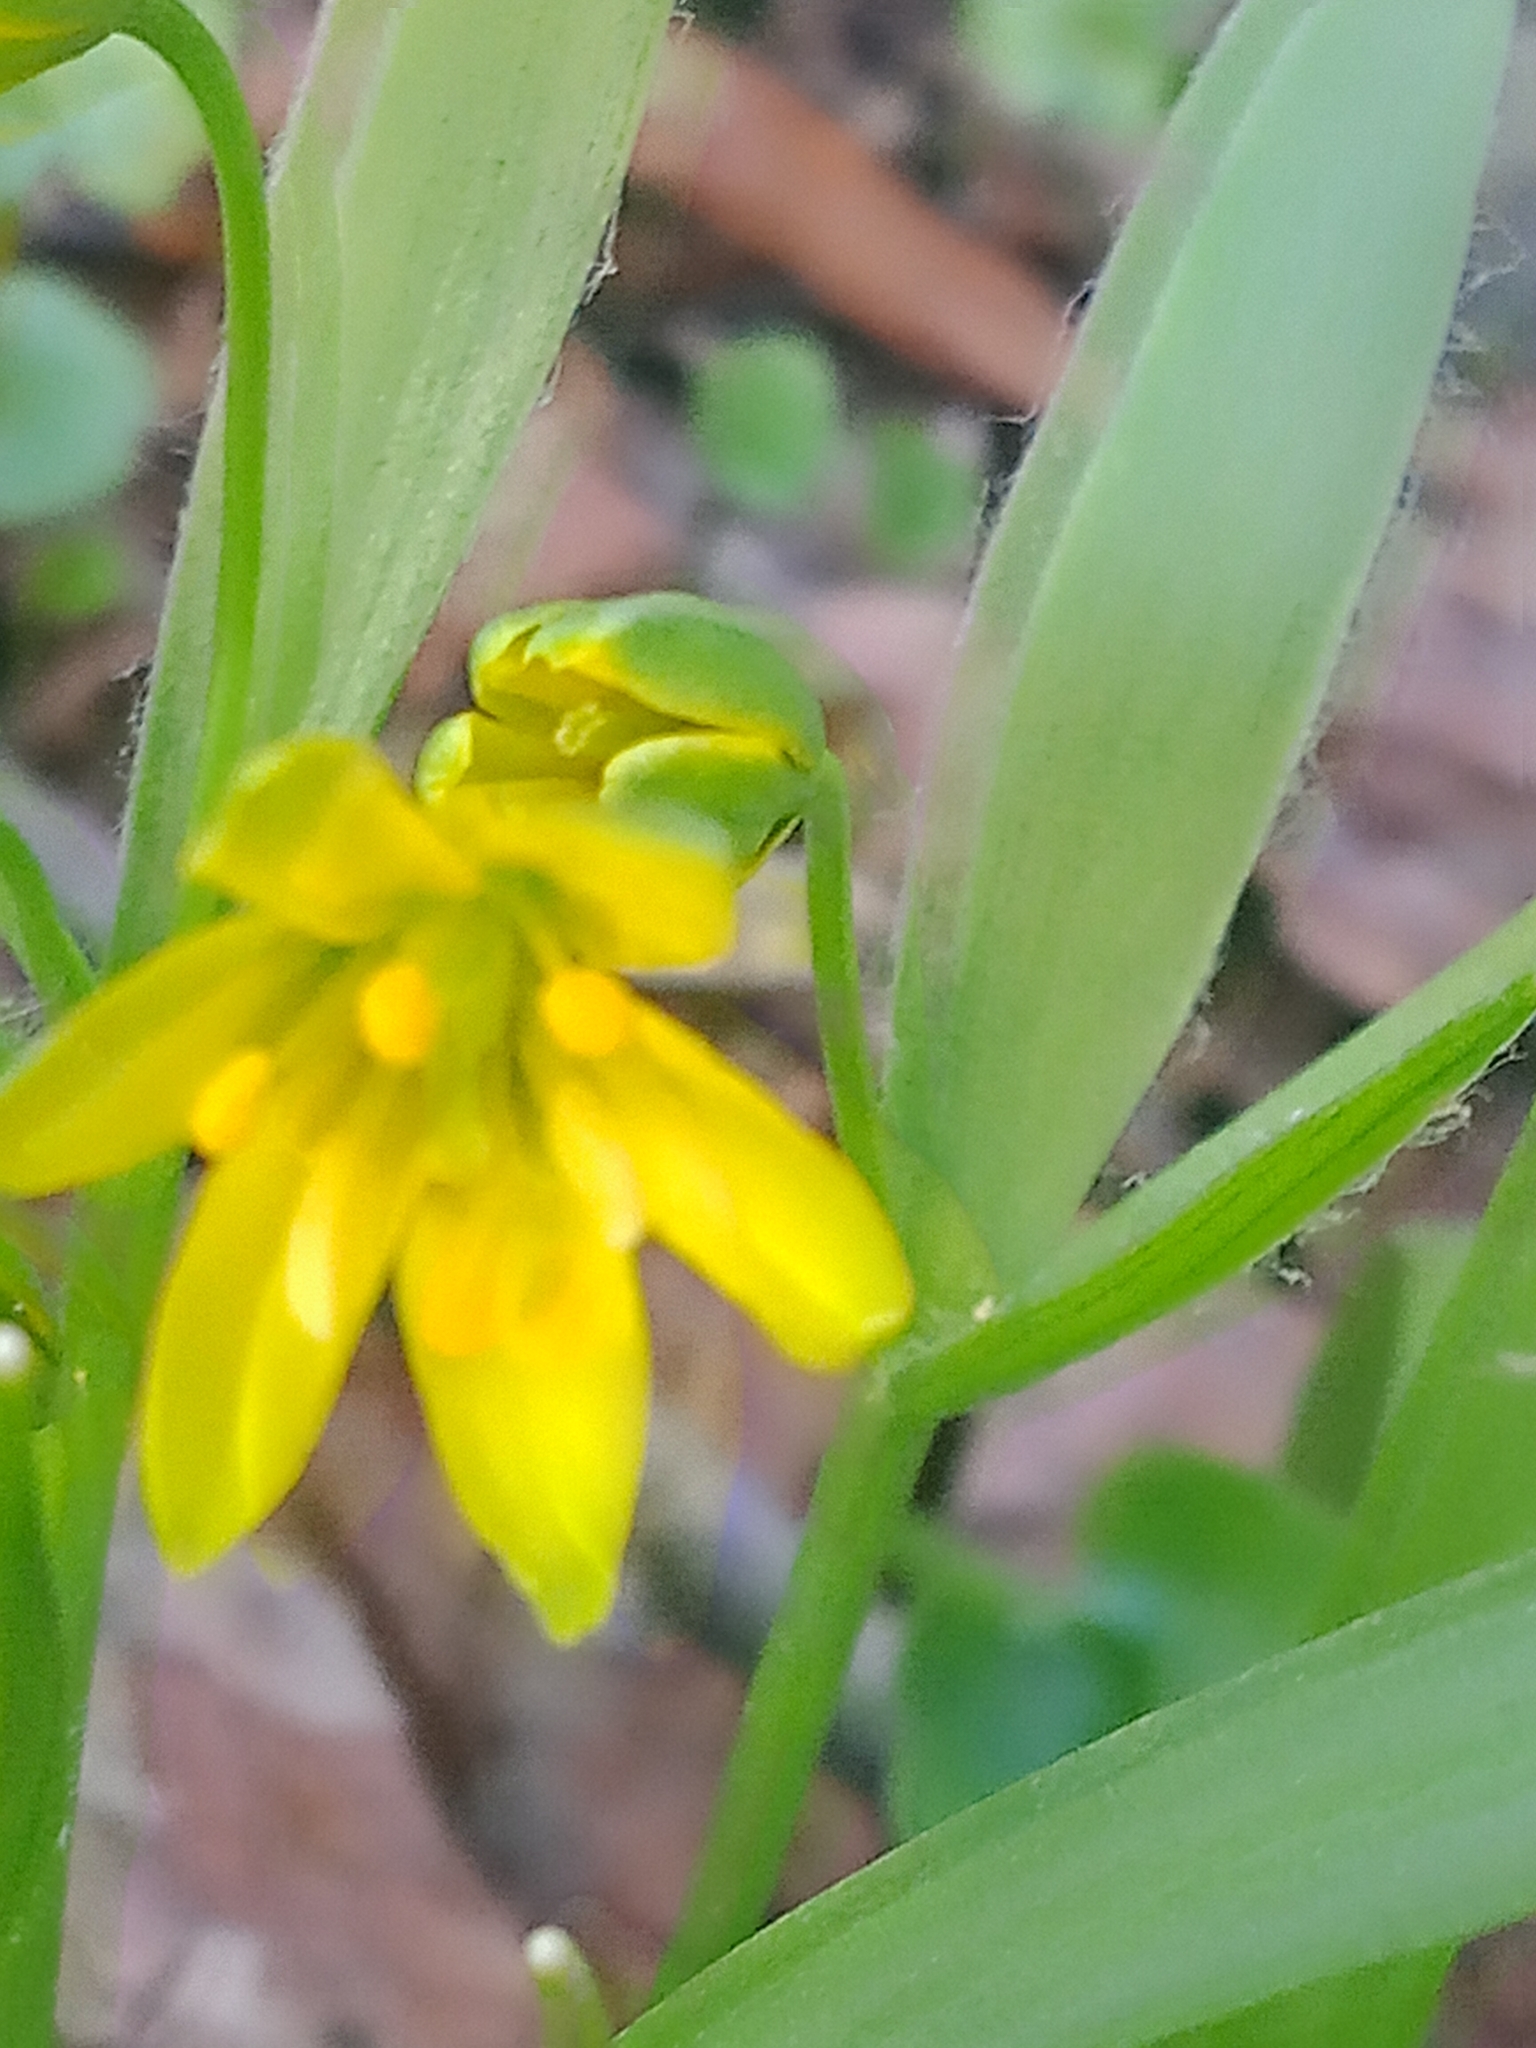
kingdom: Plantae
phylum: Tracheophyta
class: Liliopsida
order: Liliales
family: Liliaceae
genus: Gagea
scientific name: Gagea lutea
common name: Yellow star-of-bethlehem
